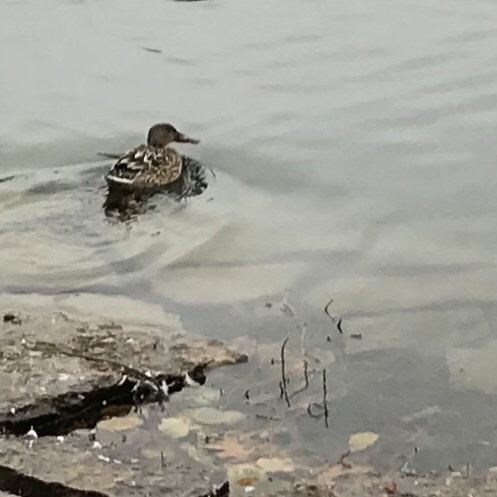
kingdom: Animalia
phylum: Chordata
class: Aves
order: Anseriformes
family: Anatidae
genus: Spatula
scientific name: Spatula clypeata
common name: Northern shoveler
